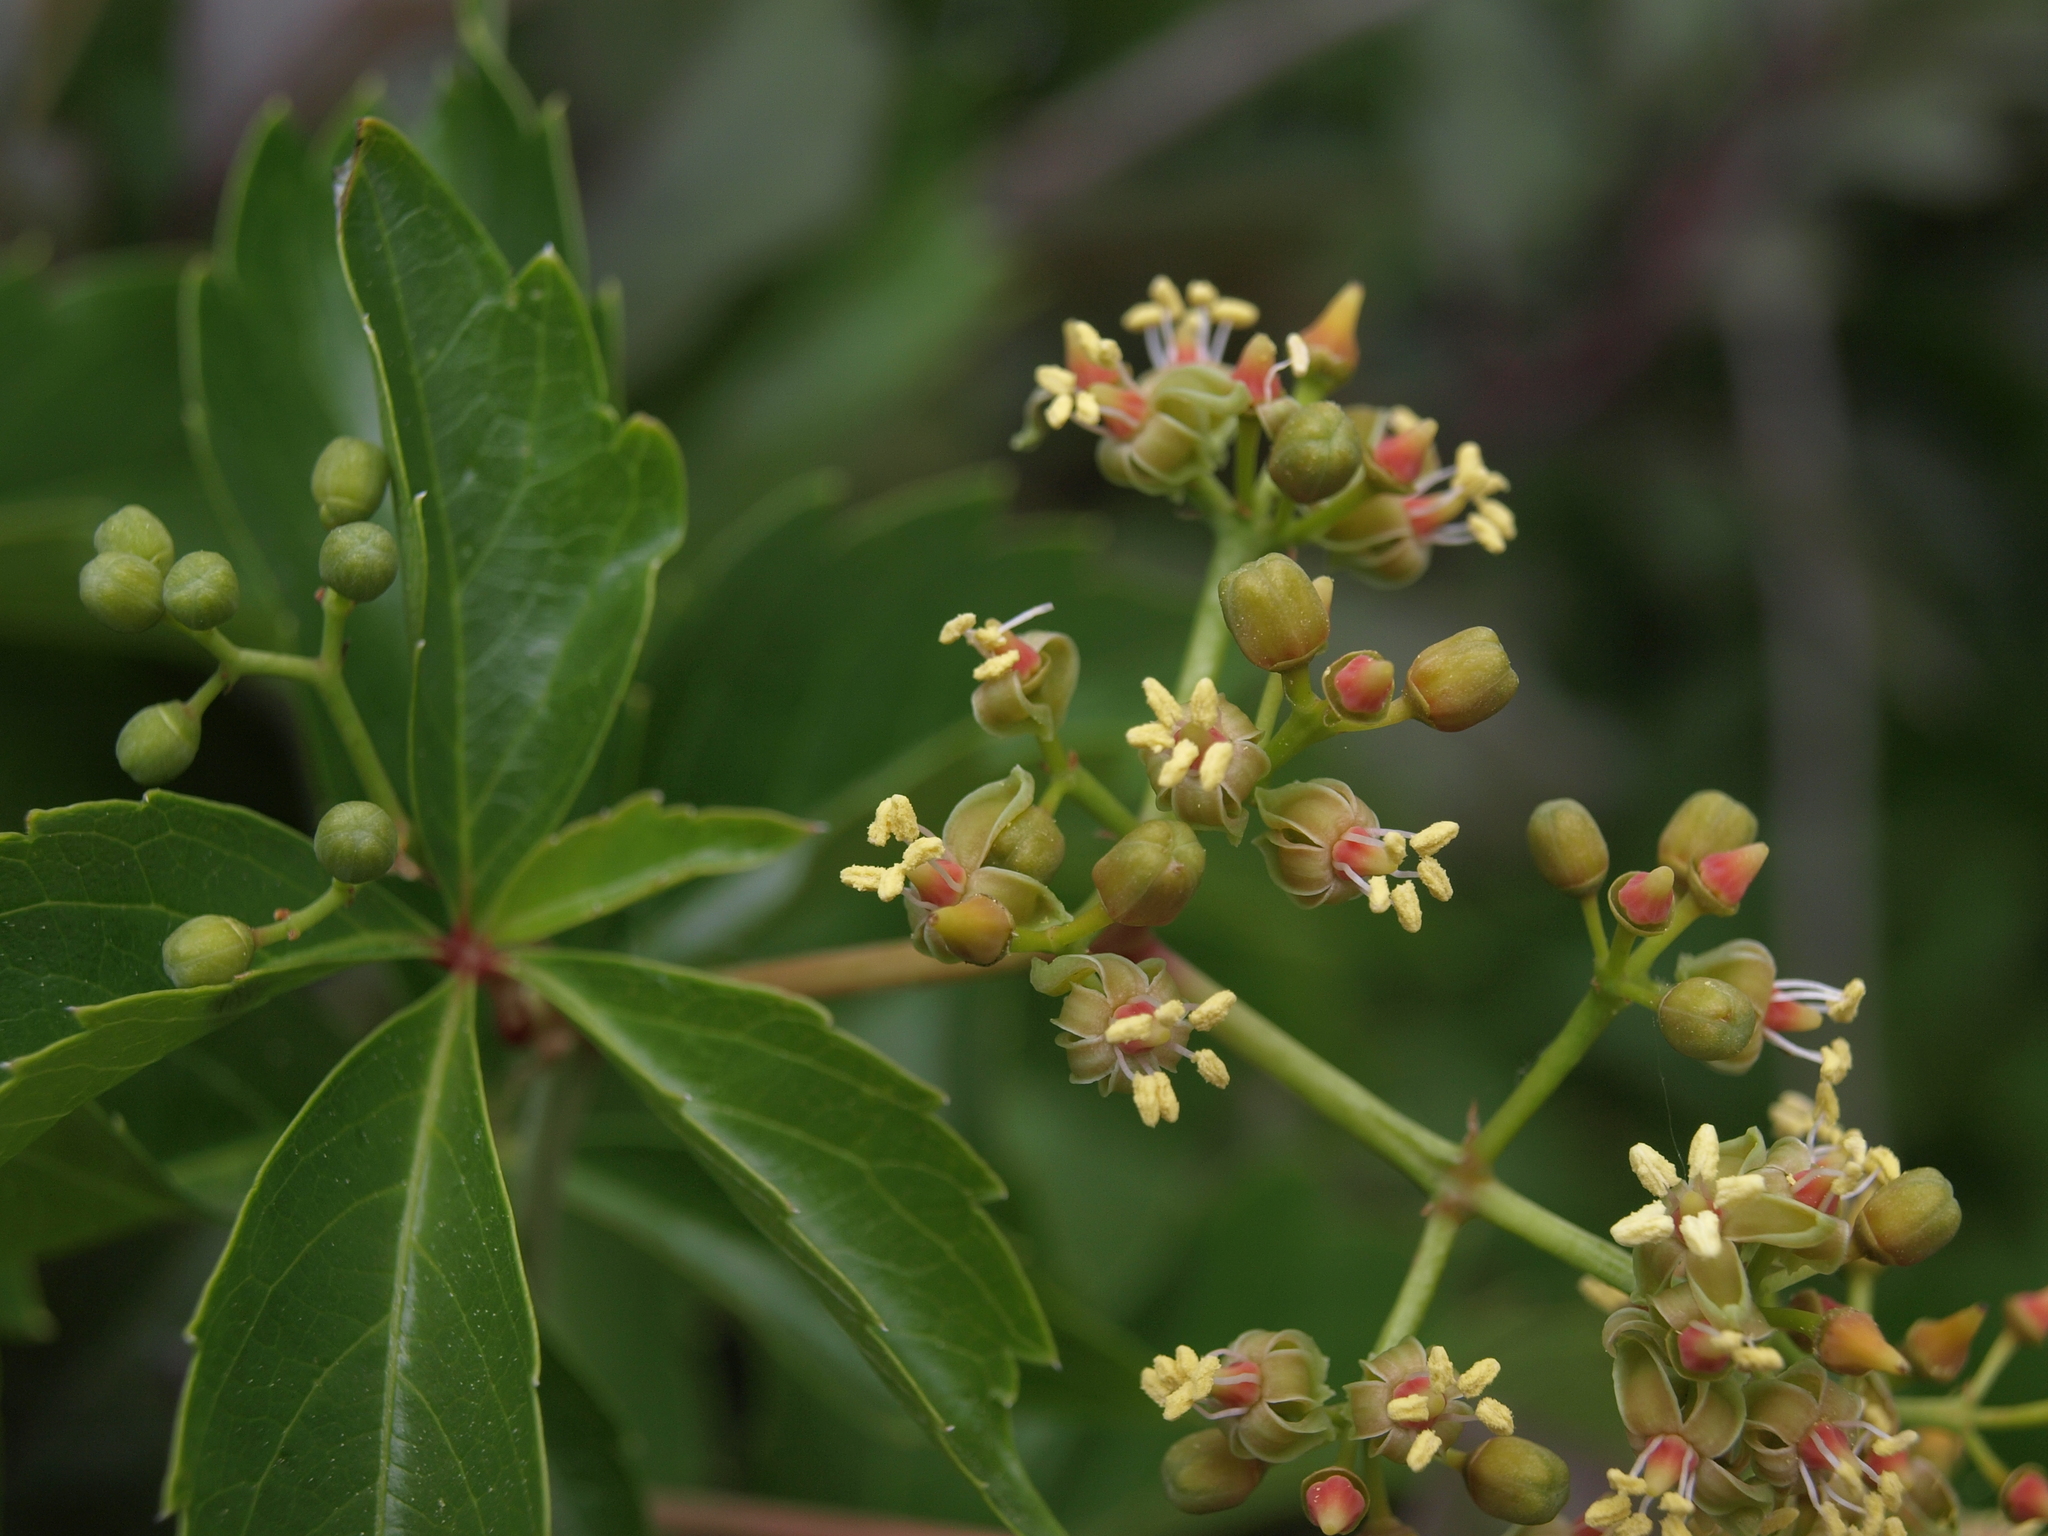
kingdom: Plantae
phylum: Tracheophyta
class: Magnoliopsida
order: Vitales
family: Vitaceae
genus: Parthenocissus
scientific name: Parthenocissus inserta
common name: False virginia-creeper
